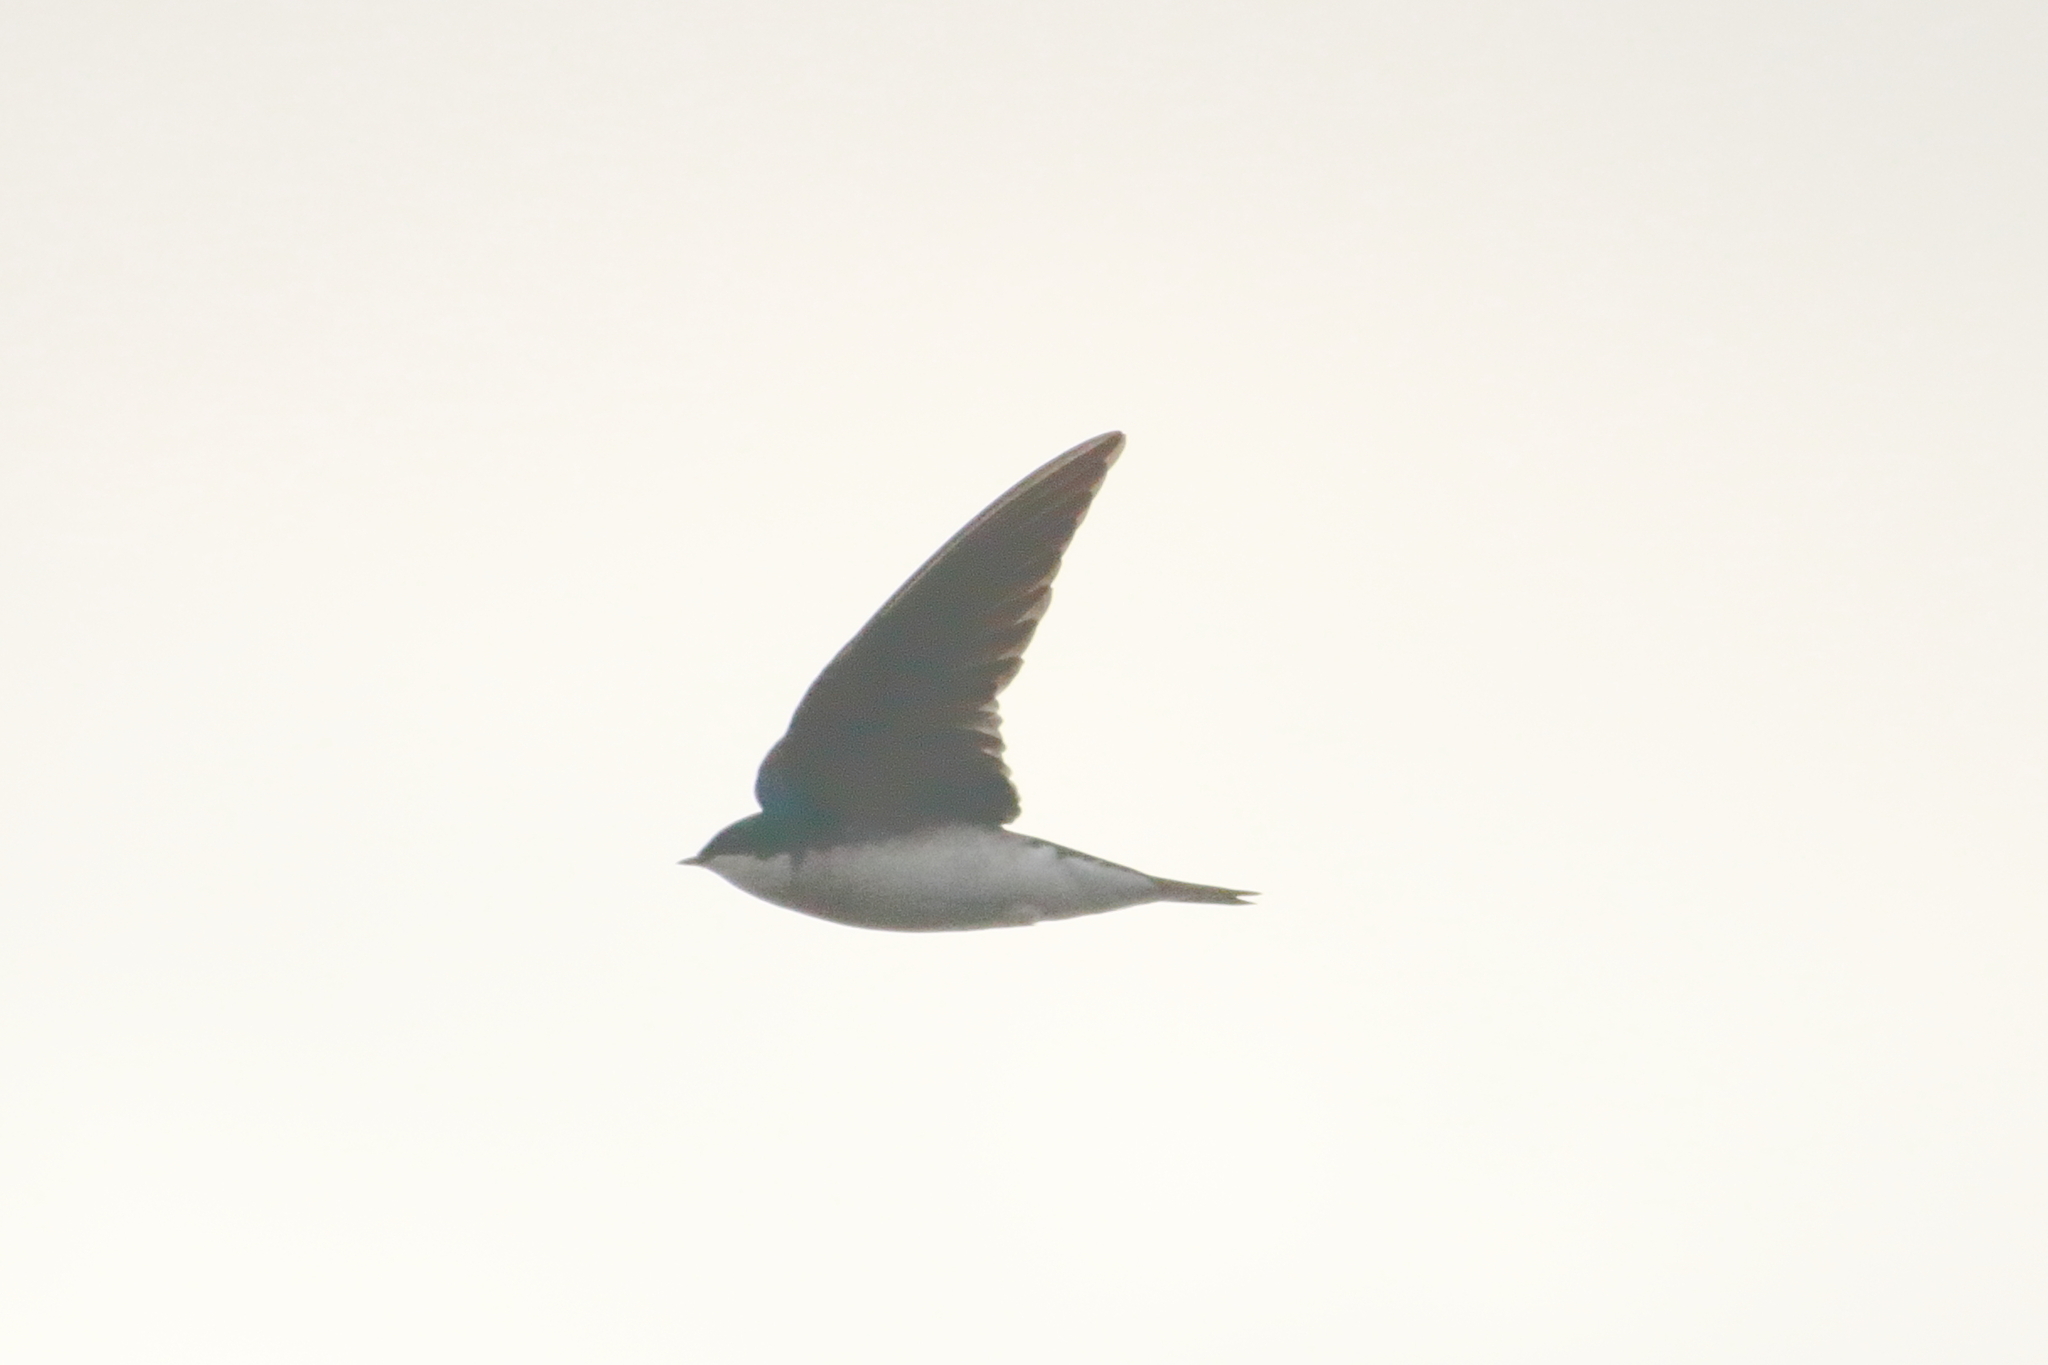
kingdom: Animalia
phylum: Chordata
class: Aves
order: Passeriformes
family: Hirundinidae
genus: Tachycineta
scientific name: Tachycineta bicolor
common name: Tree swallow
